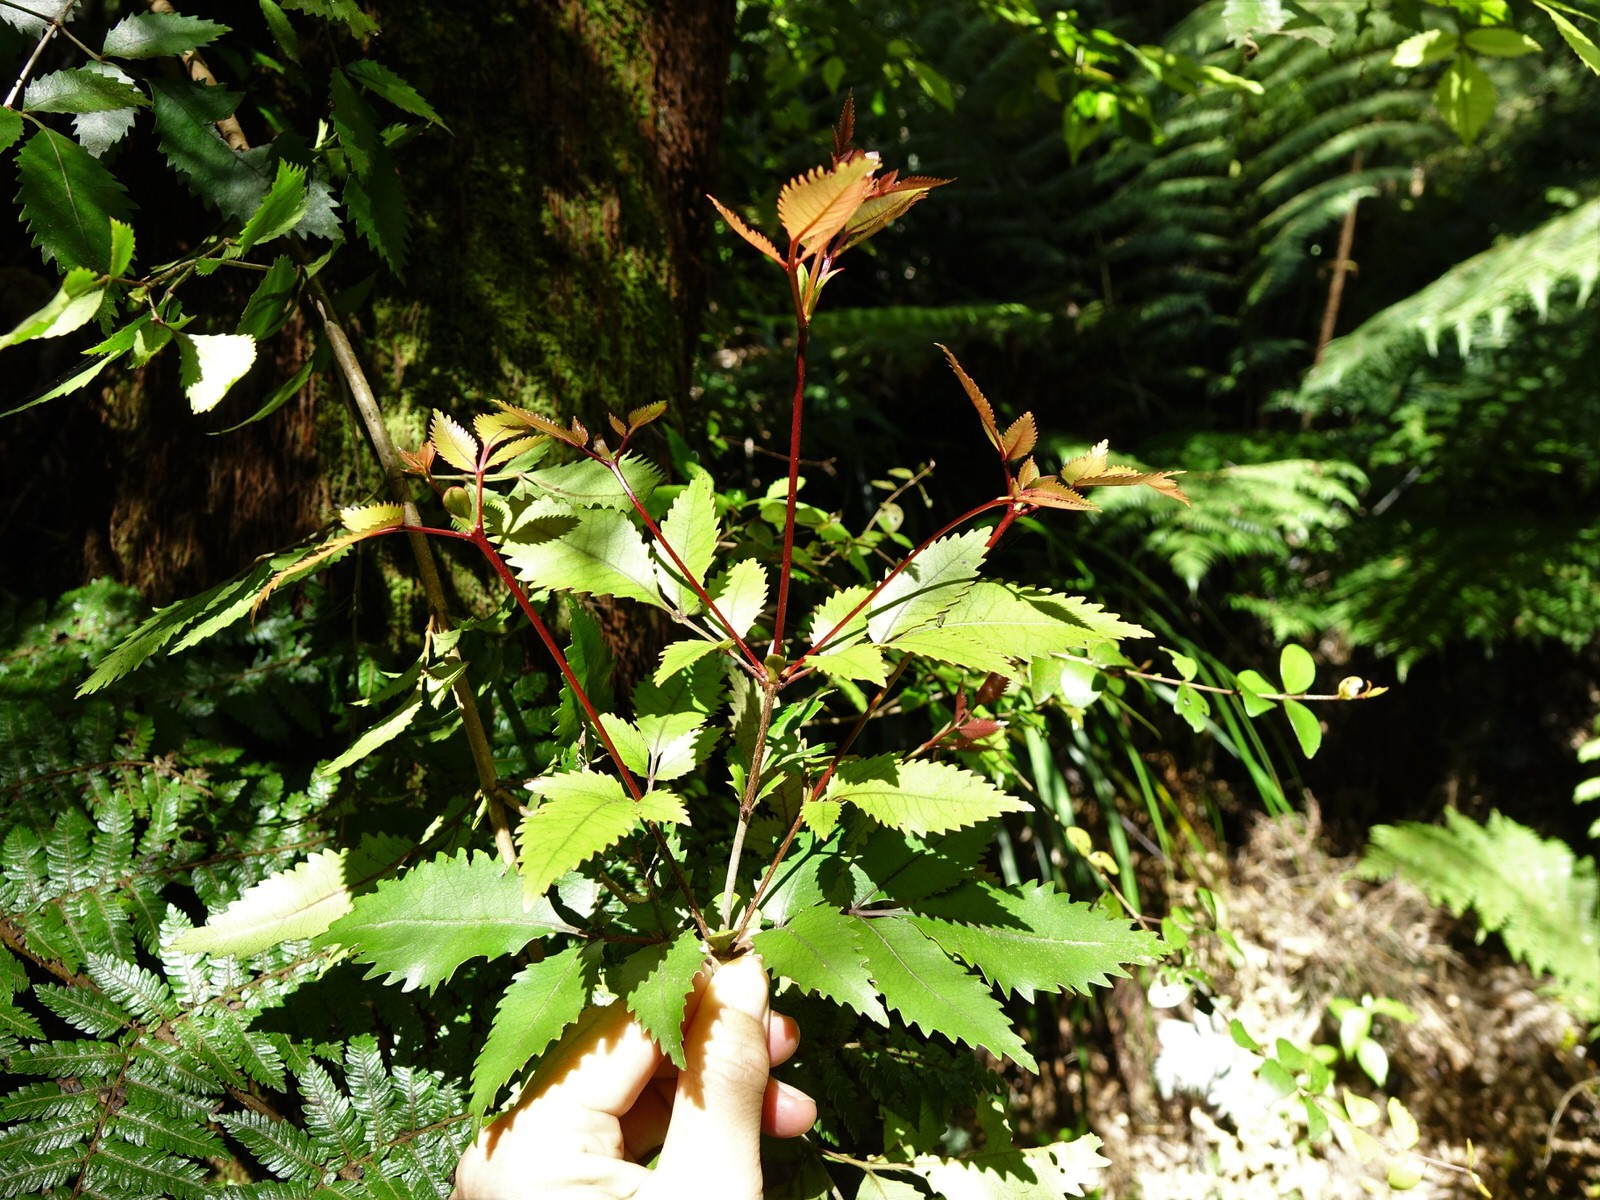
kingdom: Plantae
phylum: Tracheophyta
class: Magnoliopsida
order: Oxalidales
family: Cunoniaceae
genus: Pterophylla
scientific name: Pterophylla sylvicola
